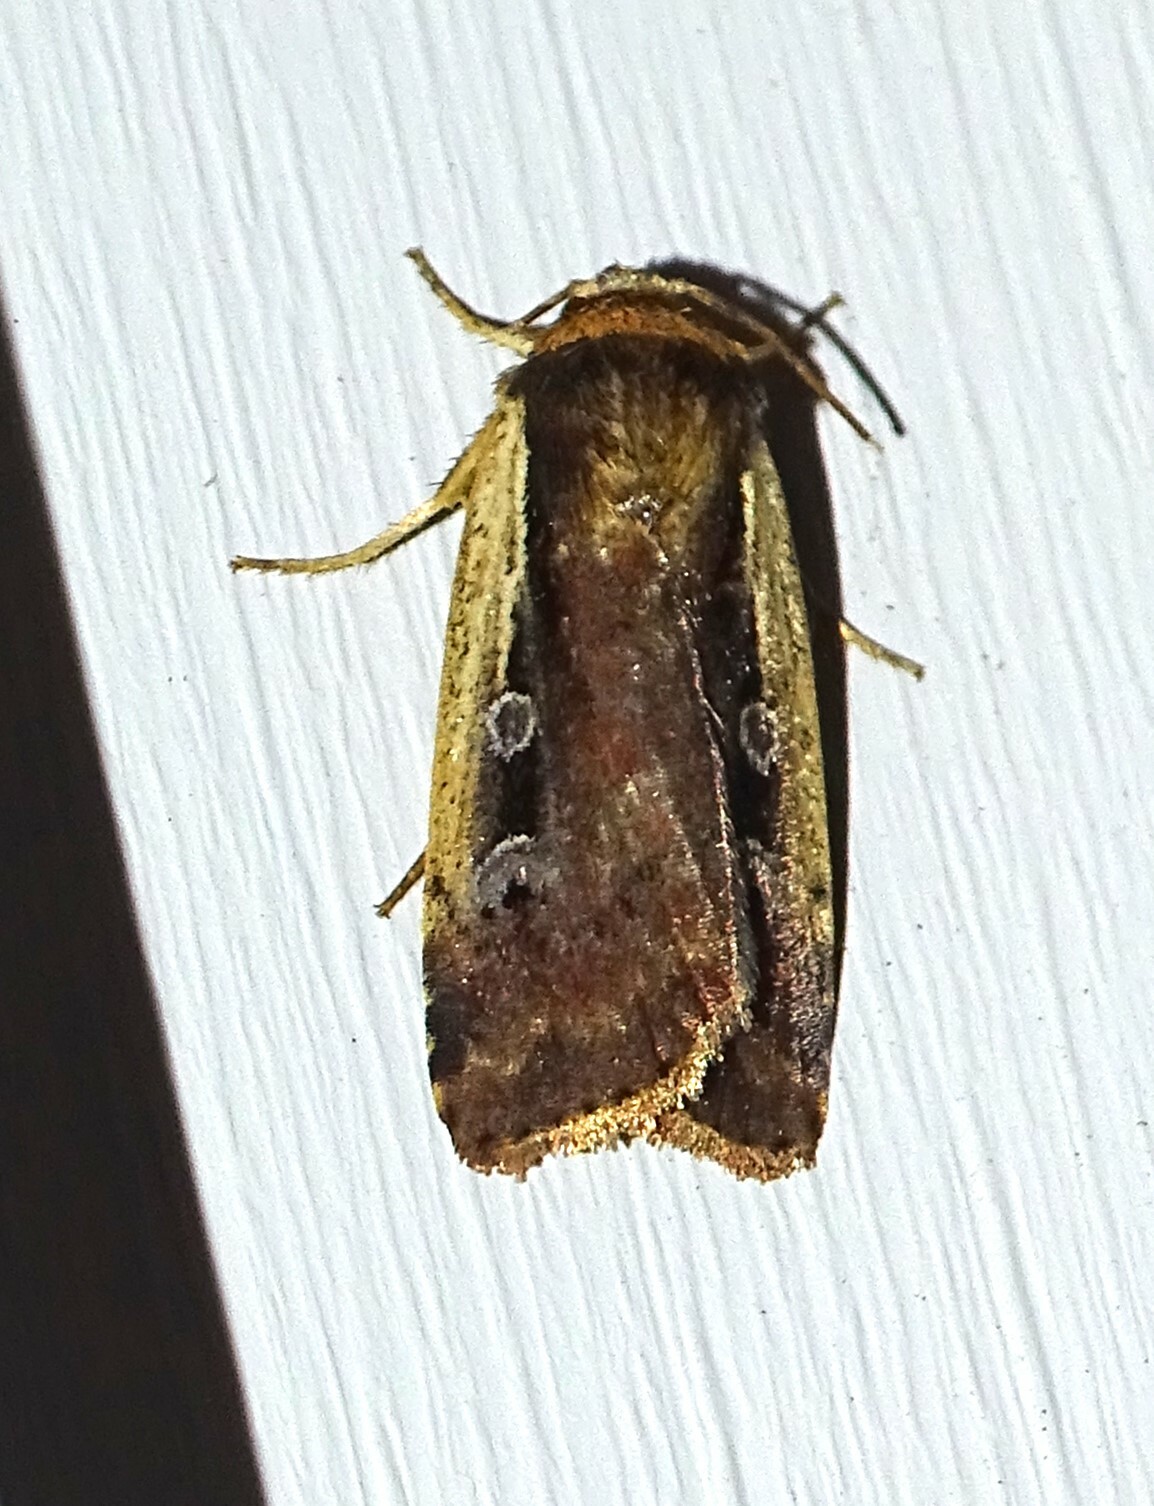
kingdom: Animalia
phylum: Arthropoda
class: Insecta
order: Lepidoptera
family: Noctuidae
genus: Ochropleura
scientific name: Ochropleura implecta
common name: Flame-shouldered dart
